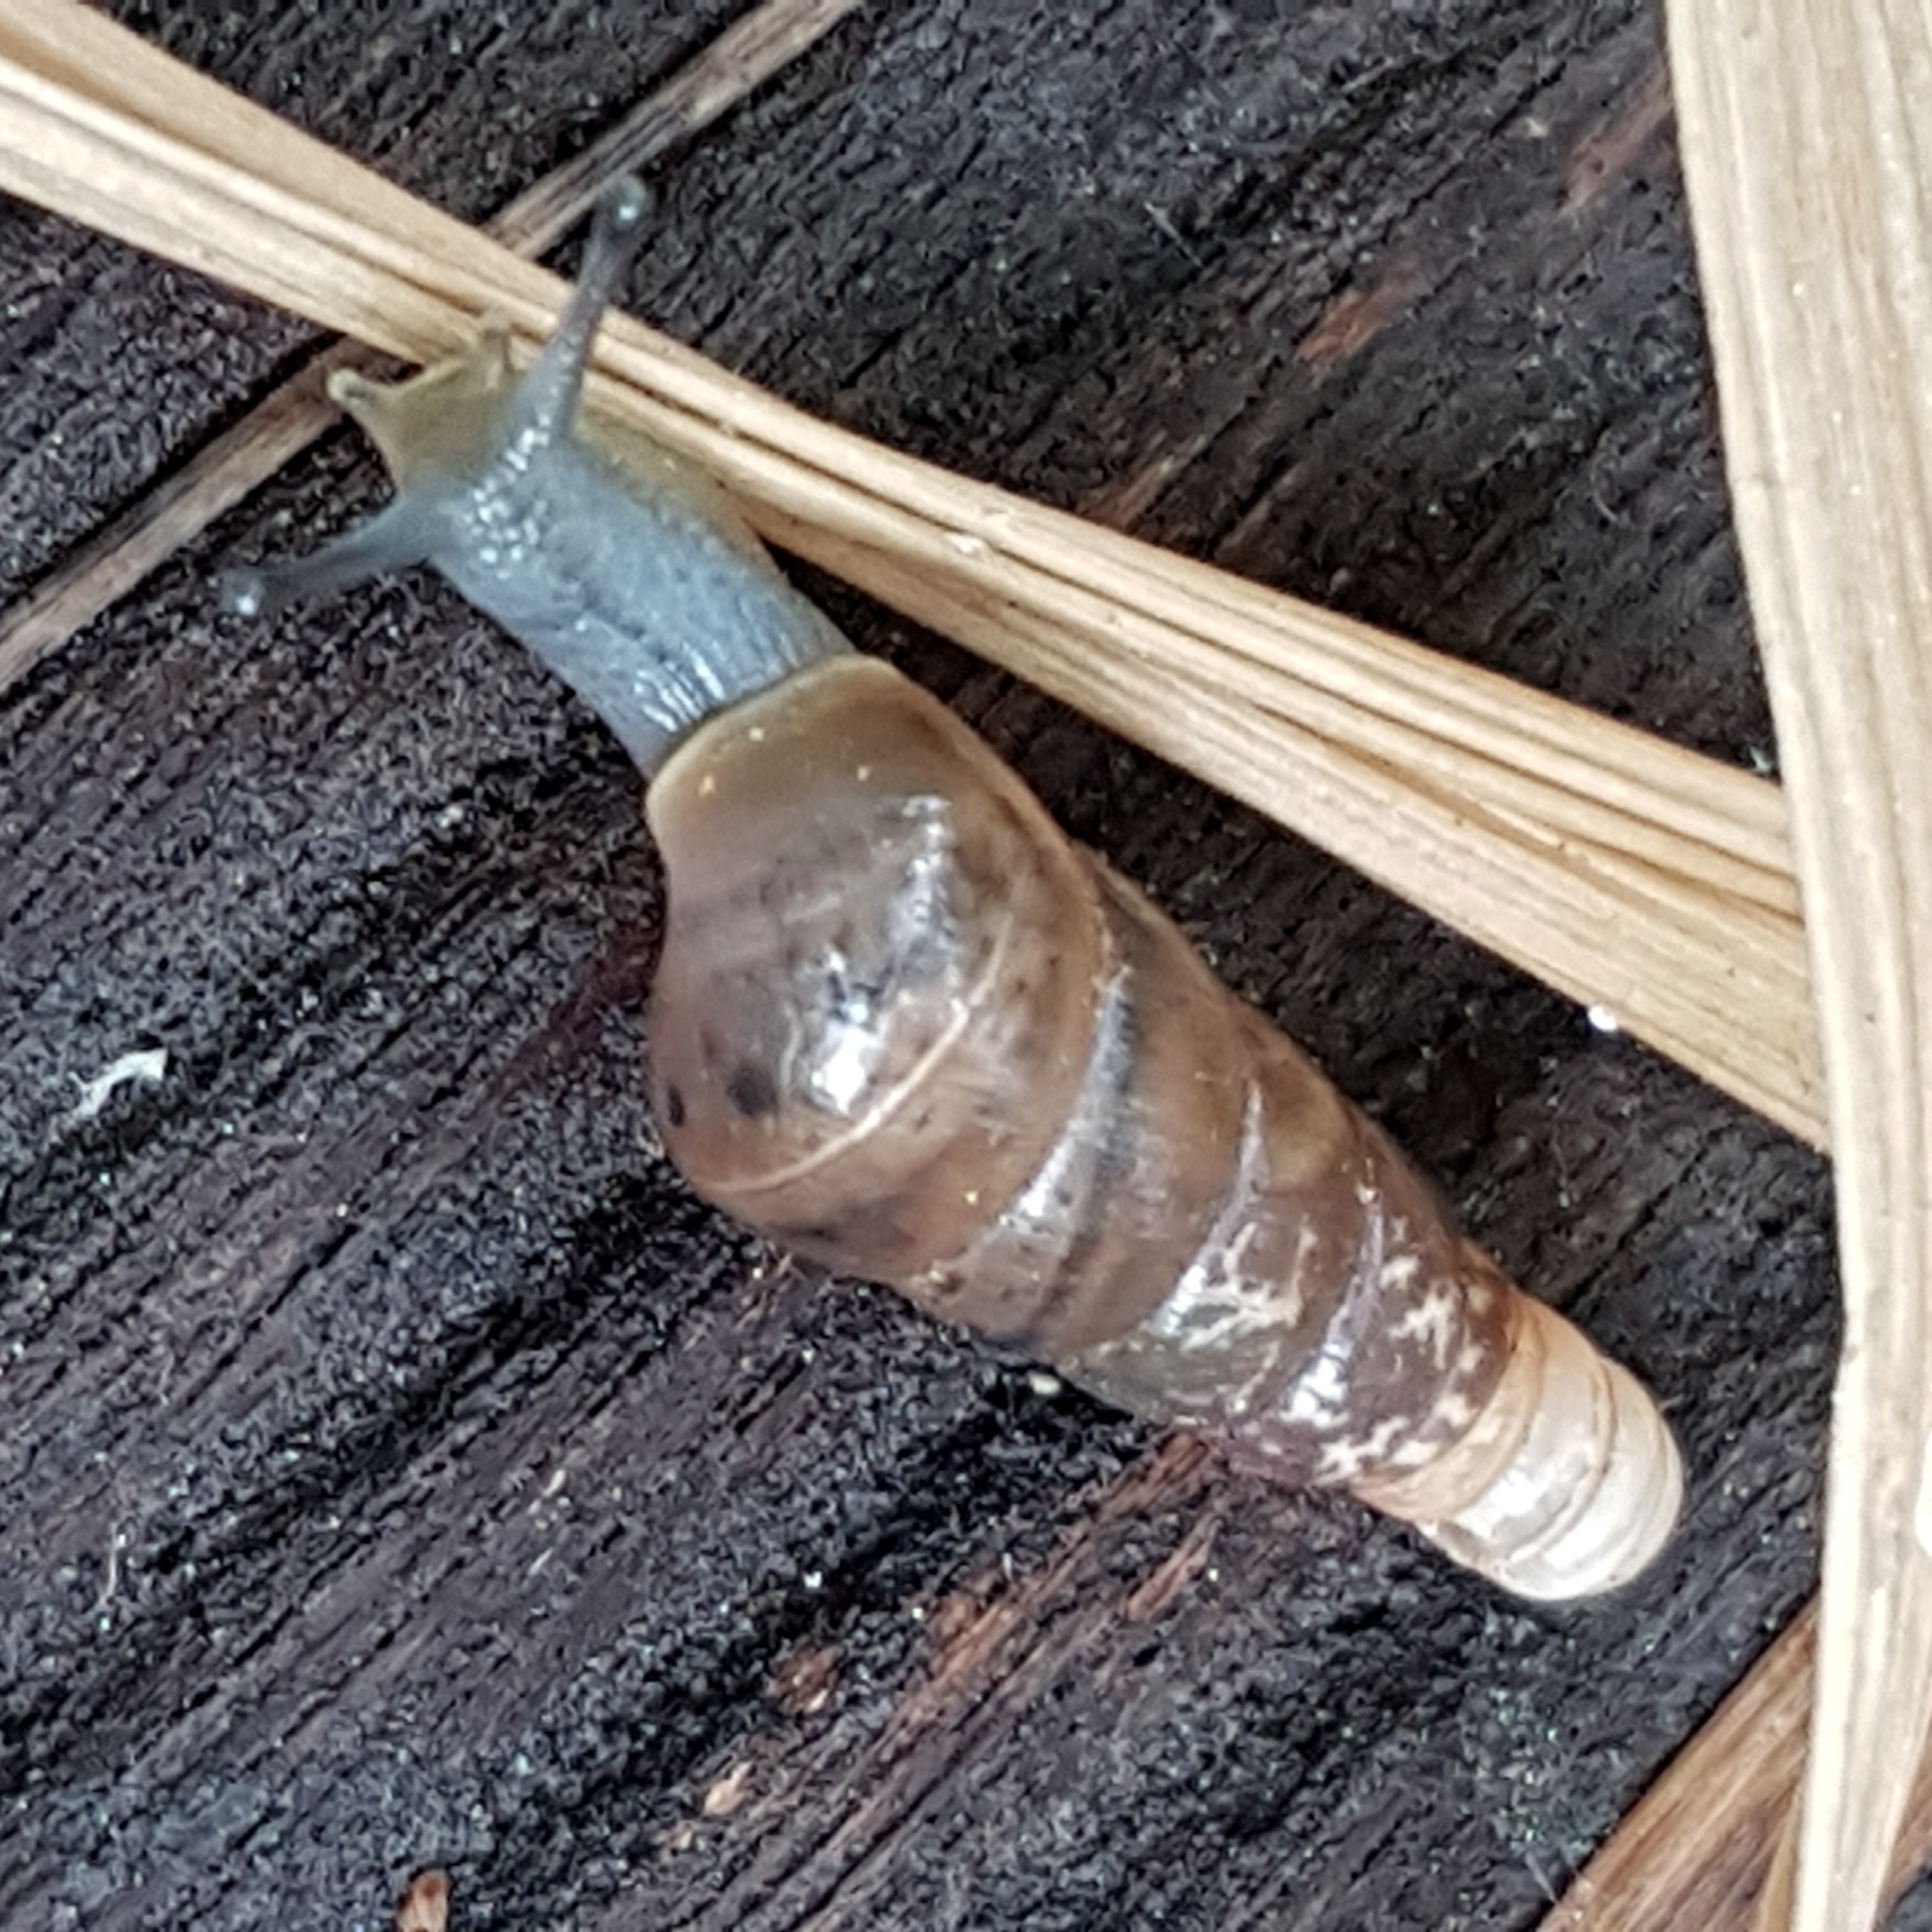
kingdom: Animalia
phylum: Mollusca
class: Gastropoda
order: Stylommatophora
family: Achatinidae
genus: Rumina
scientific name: Rumina decollata
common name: Decollate snail
